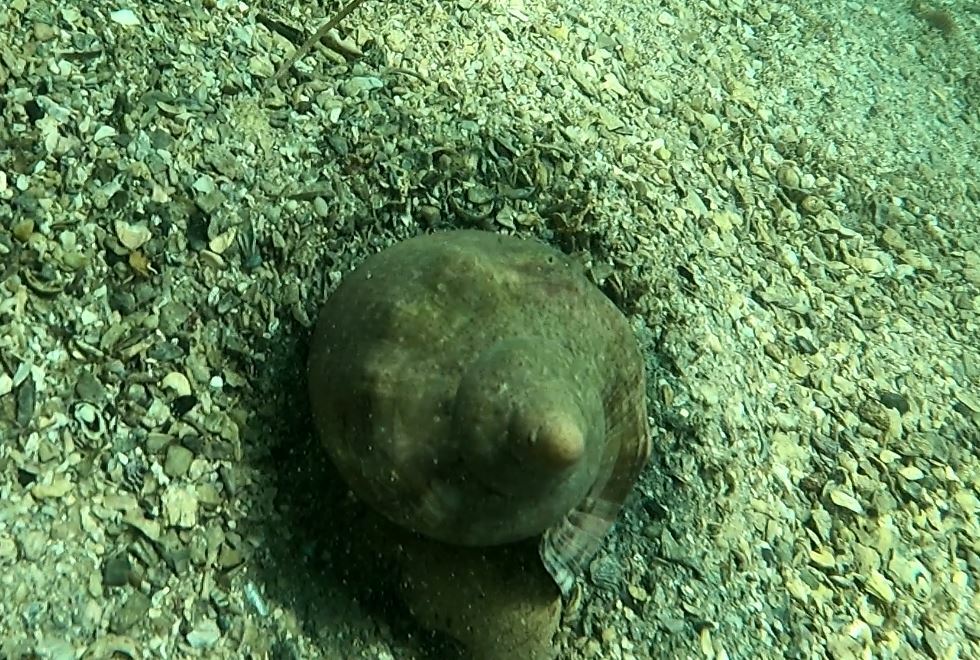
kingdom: Animalia
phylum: Mollusca
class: Gastropoda
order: Neogastropoda
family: Volutidae
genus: Cymbiola
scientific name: Cymbiola magnifica
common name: Magnificent volute
